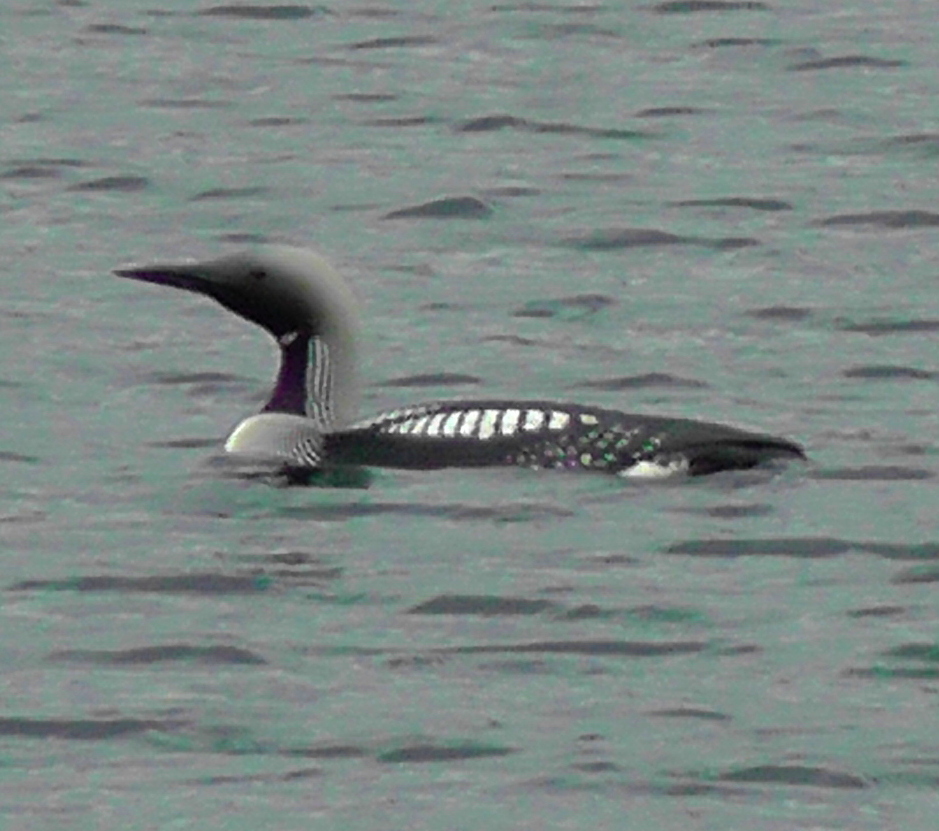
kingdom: Animalia
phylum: Chordata
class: Aves
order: Gaviiformes
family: Gaviidae
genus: Gavia
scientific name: Gavia arctica
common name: Black-throated loon
